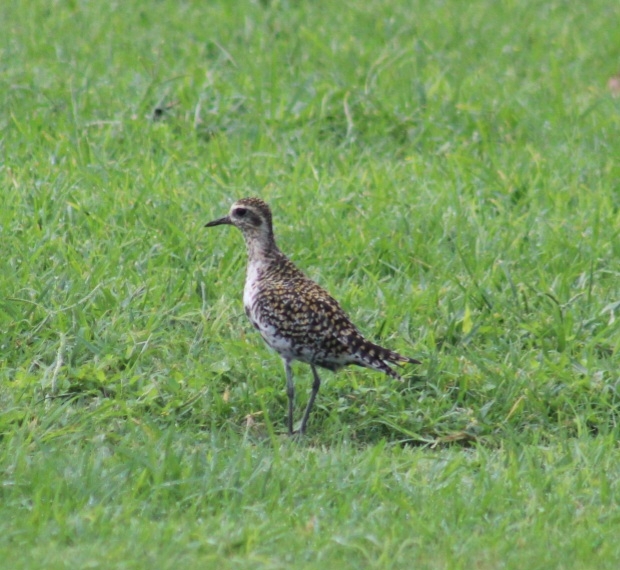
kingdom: Animalia
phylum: Chordata
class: Aves
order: Charadriiformes
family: Charadriidae
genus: Pluvialis
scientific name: Pluvialis fulva
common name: Pacific golden plover
